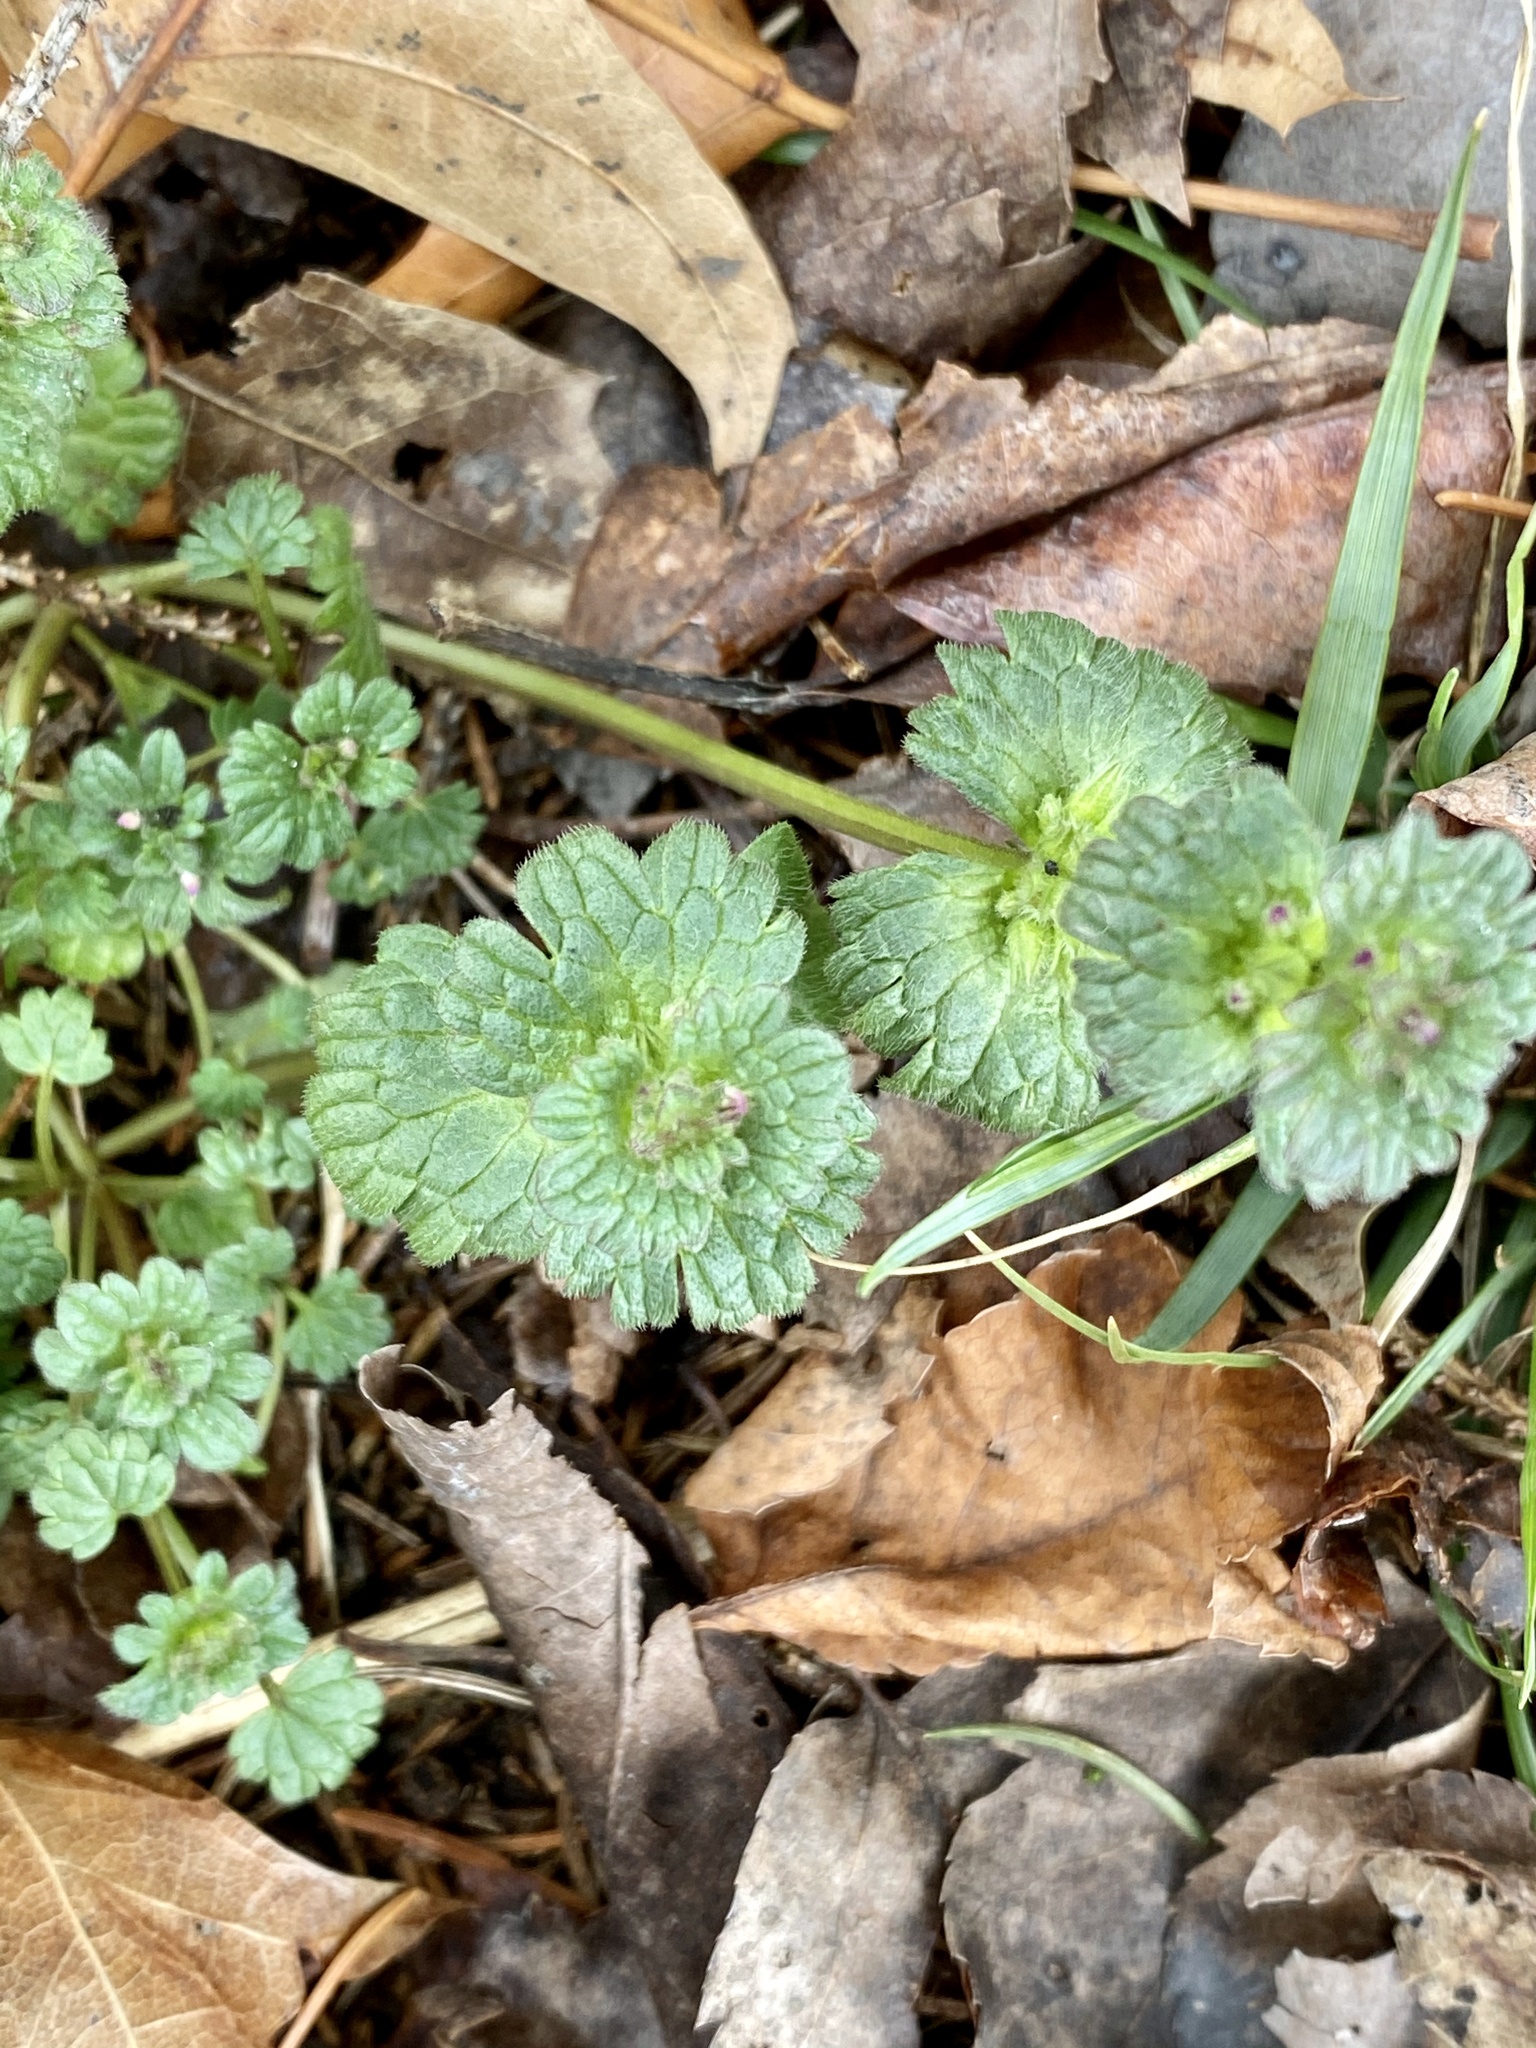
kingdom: Plantae
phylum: Tracheophyta
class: Magnoliopsida
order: Lamiales
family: Lamiaceae
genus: Lamium
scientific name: Lamium amplexicaule
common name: Henbit dead-nettle
